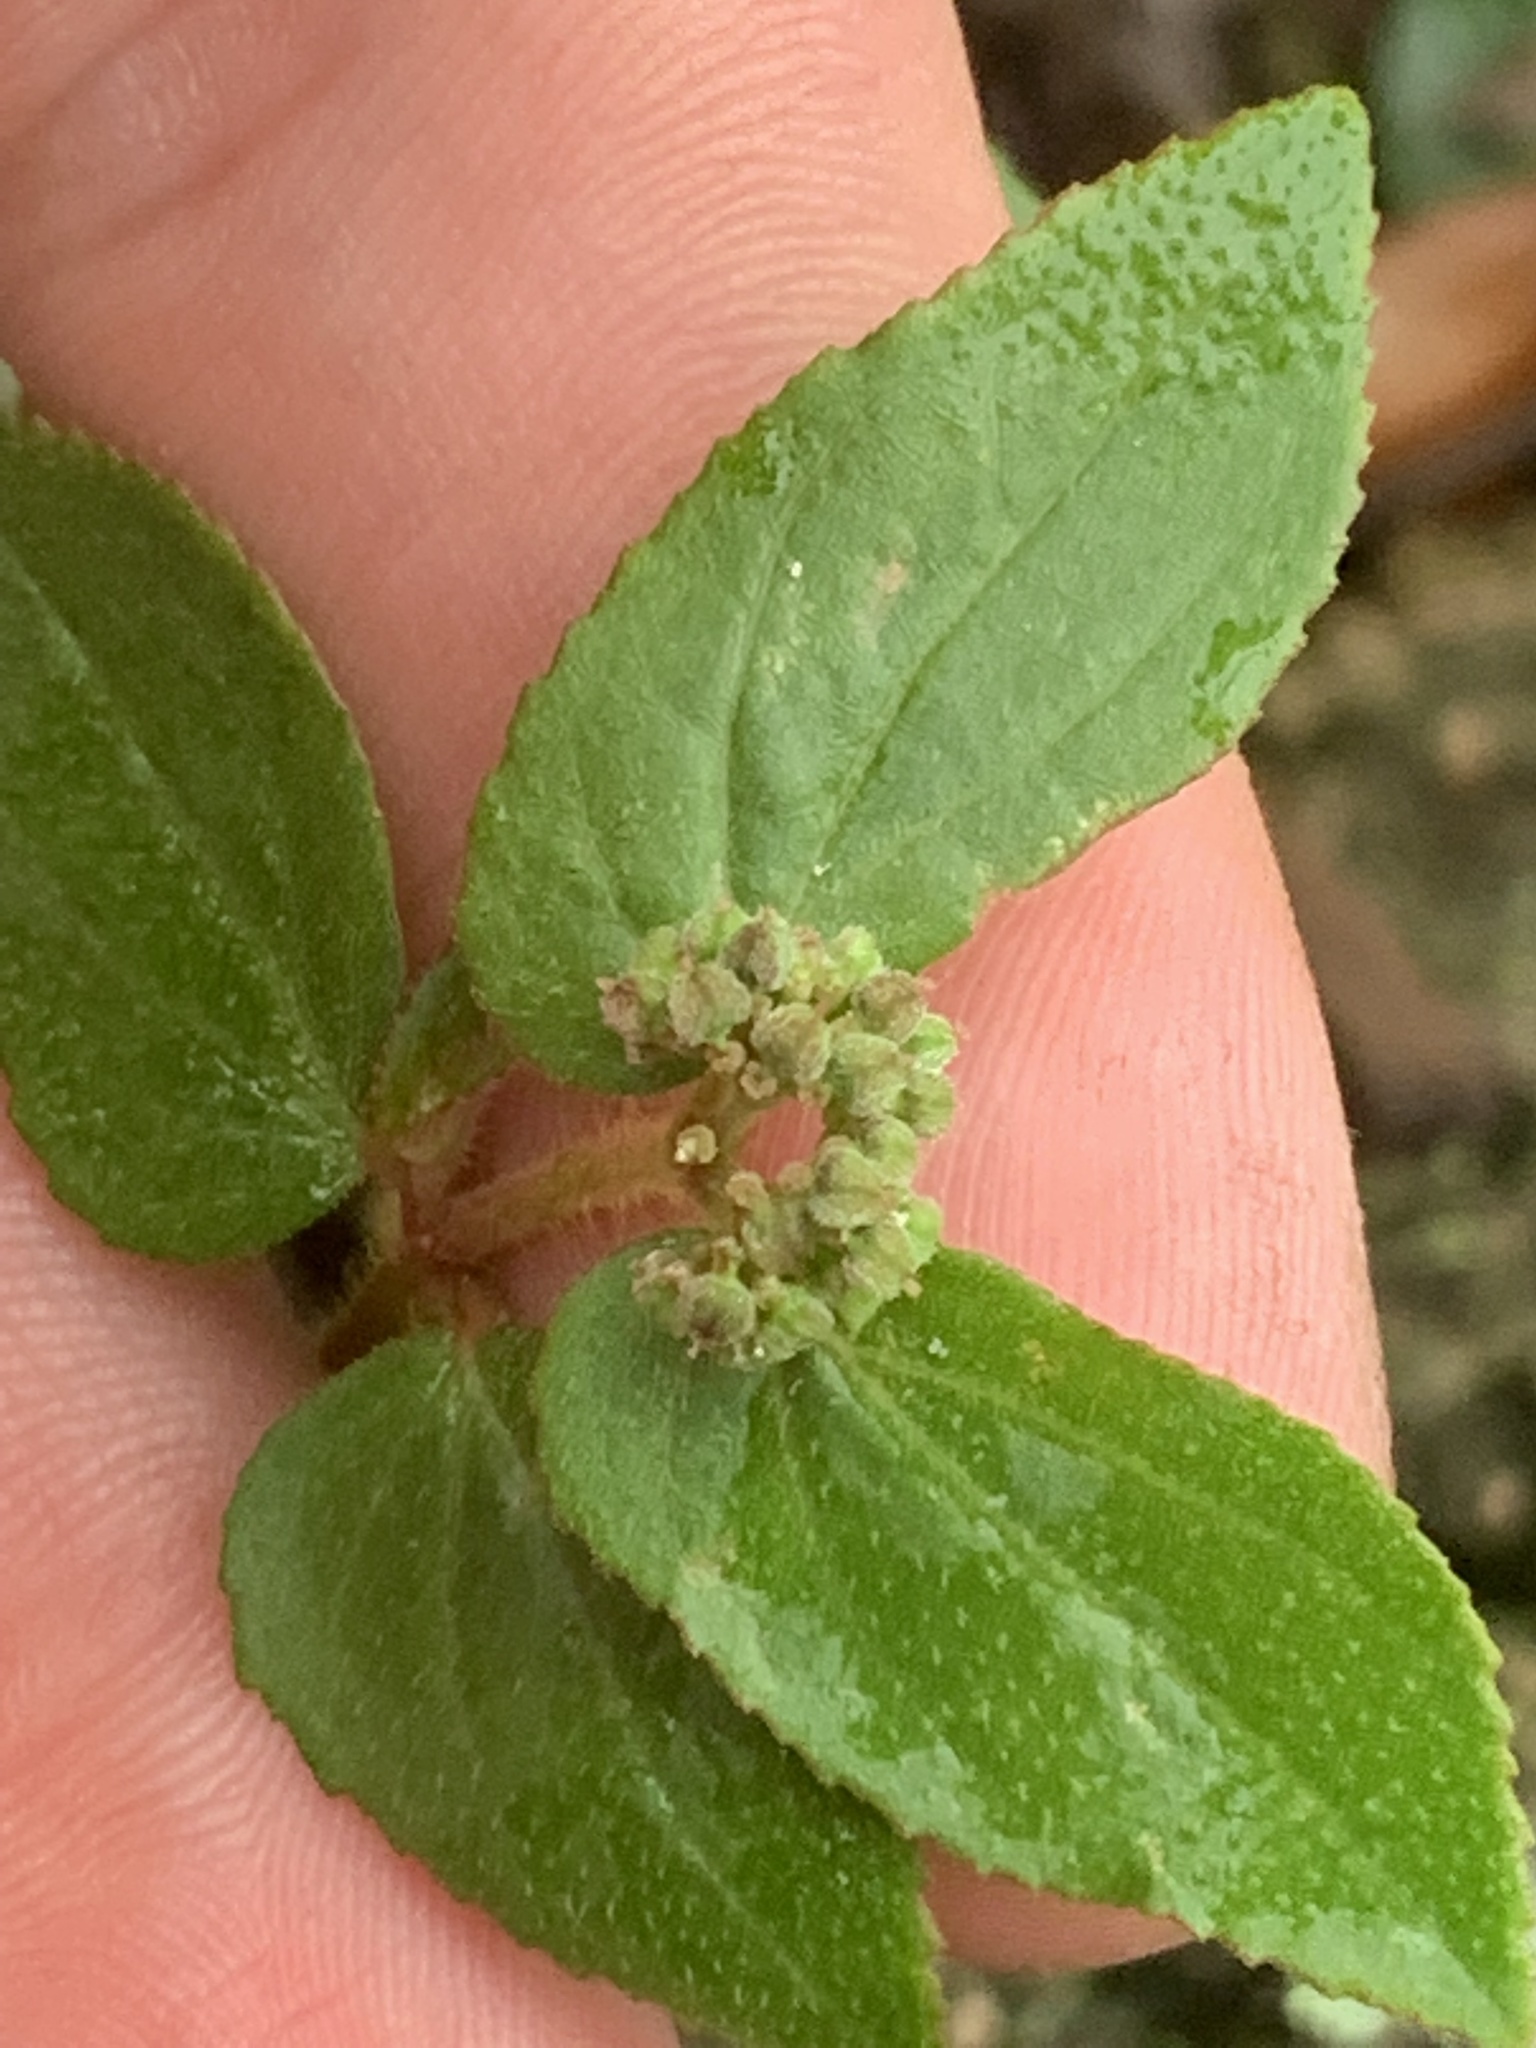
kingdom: Plantae
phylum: Tracheophyta
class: Magnoliopsida
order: Malpighiales
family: Euphorbiaceae
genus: Euphorbia
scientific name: Euphorbia ophthalmica
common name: Florida hammock sandmat
